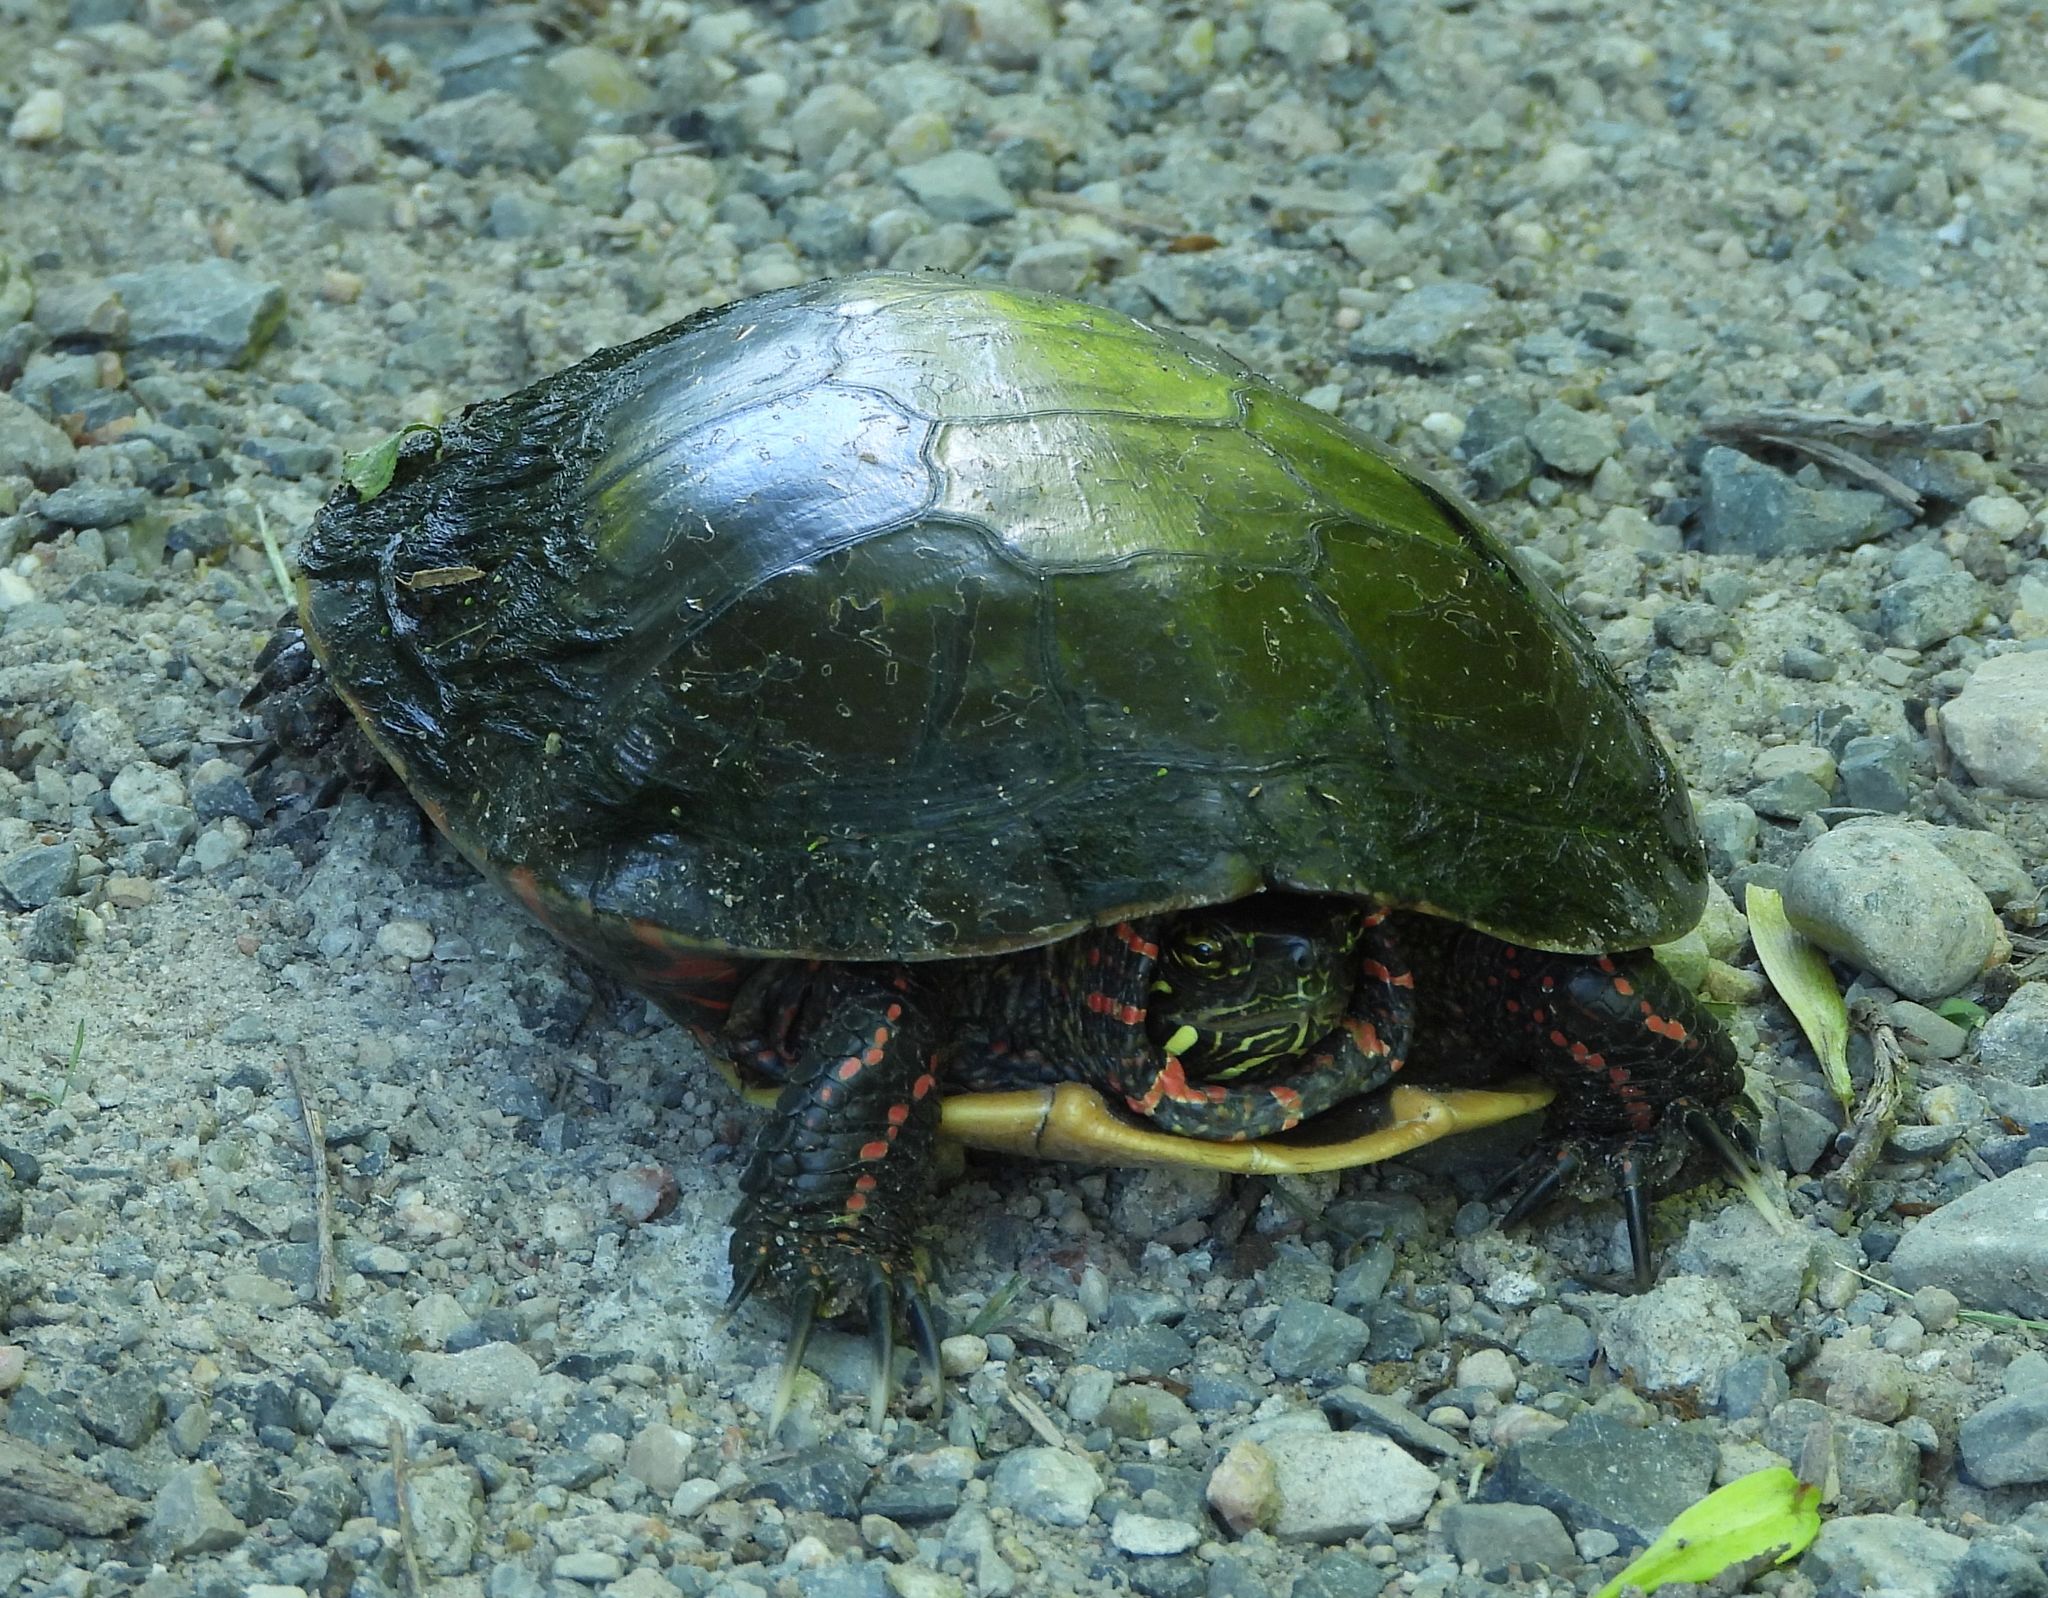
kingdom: Animalia
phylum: Chordata
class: Testudines
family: Emydidae
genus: Chrysemys
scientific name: Chrysemys picta
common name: Painted turtle
